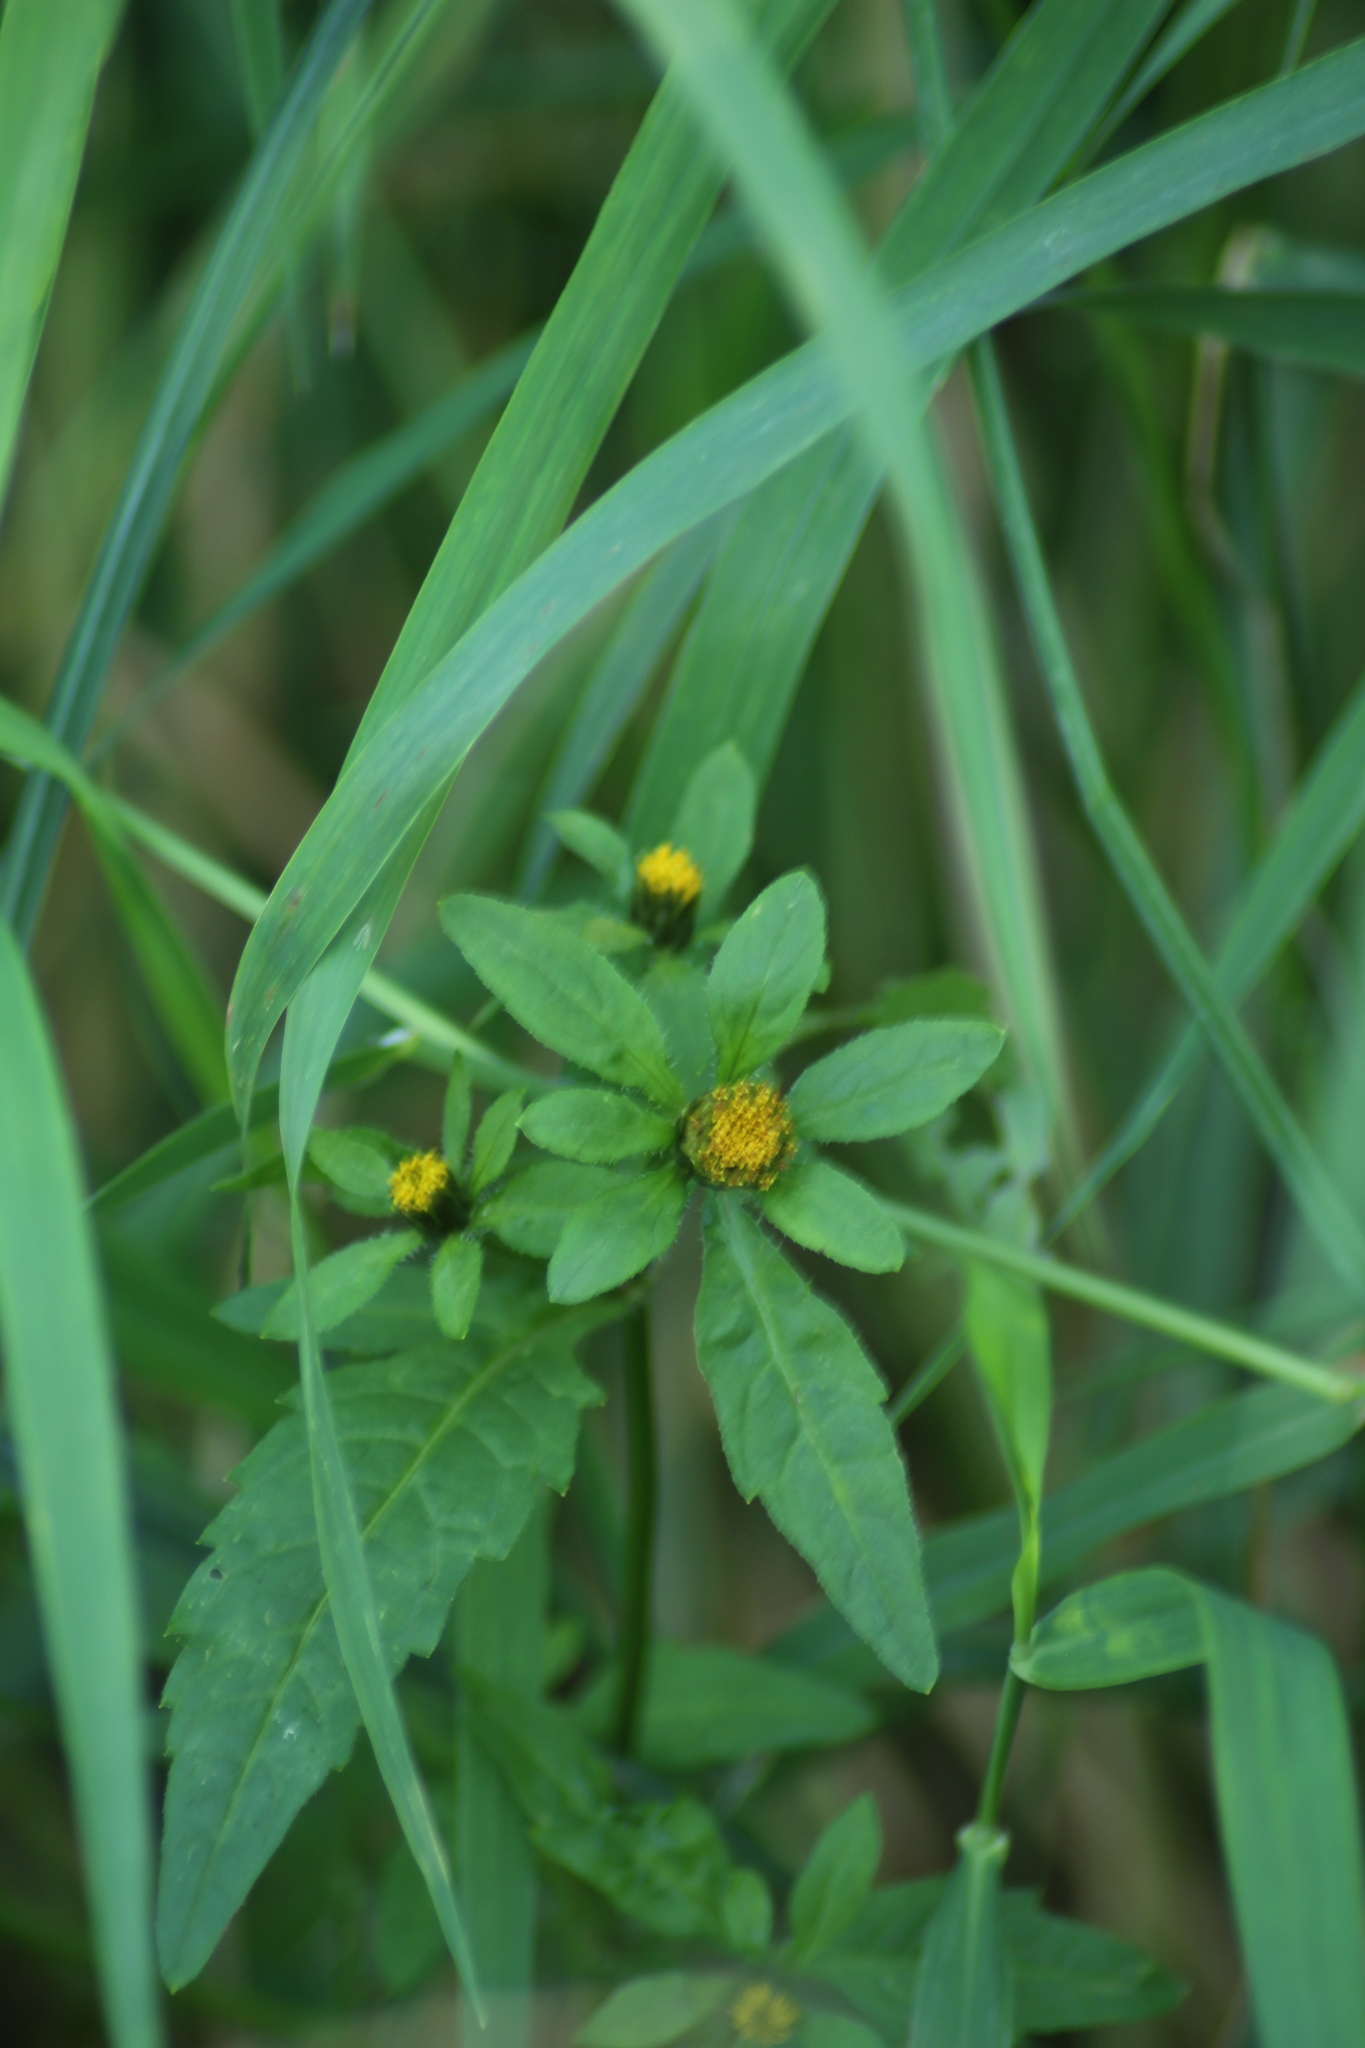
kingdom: Plantae
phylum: Tracheophyta
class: Magnoliopsida
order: Asterales
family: Asteraceae
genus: Bidens
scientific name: Bidens tripartita
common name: Trifid bur-marigold
